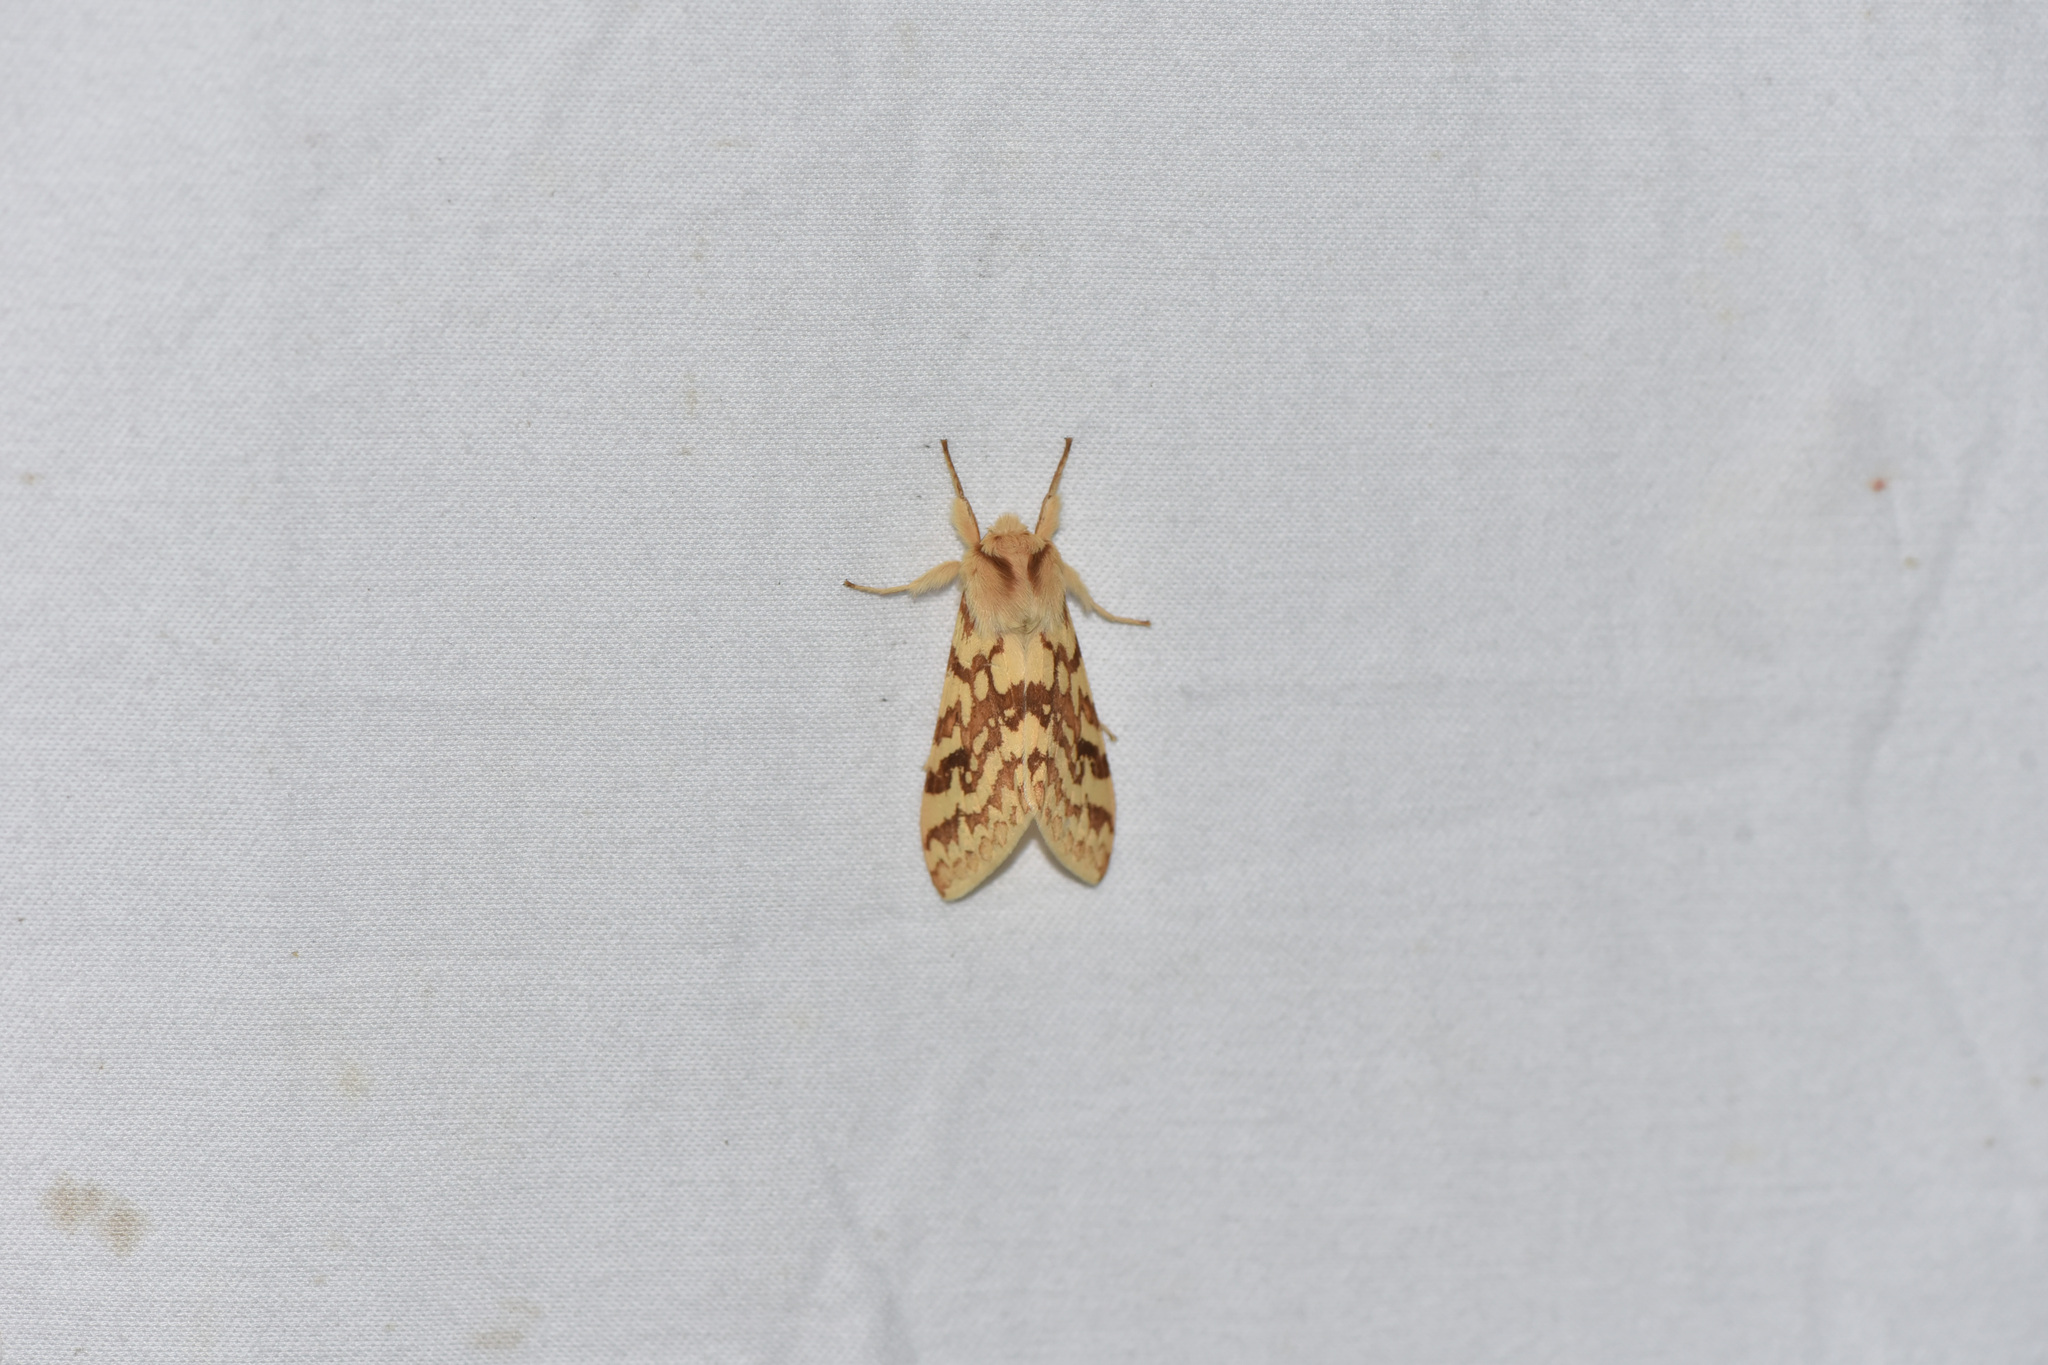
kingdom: Animalia
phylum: Arthropoda
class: Insecta
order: Lepidoptera
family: Erebidae
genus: Lophocampa
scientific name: Lophocampa maculata
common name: Spotted tussock moth
